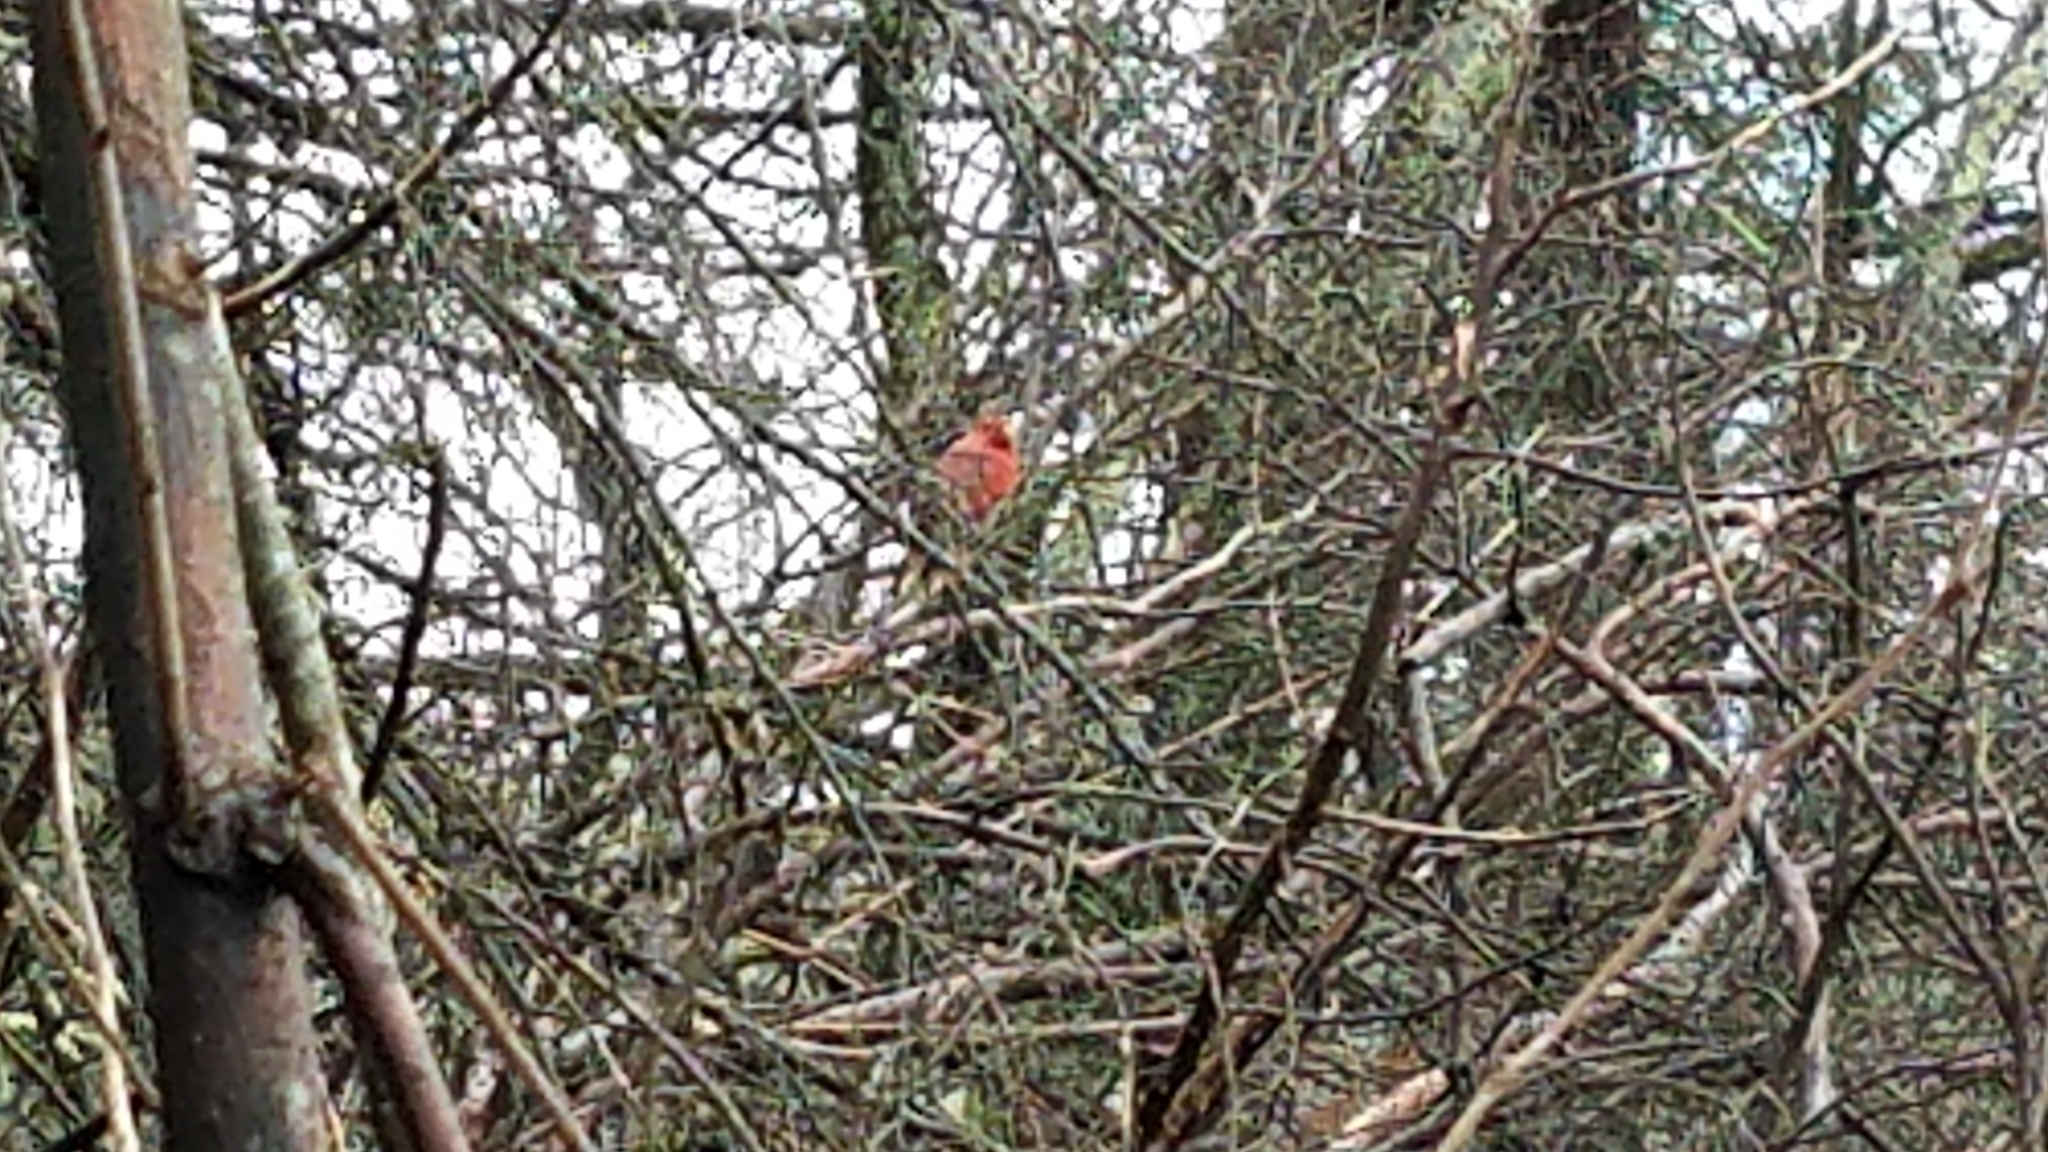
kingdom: Animalia
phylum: Chordata
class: Aves
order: Passeriformes
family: Cardinalidae
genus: Cardinalis
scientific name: Cardinalis cardinalis
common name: Northern cardinal
